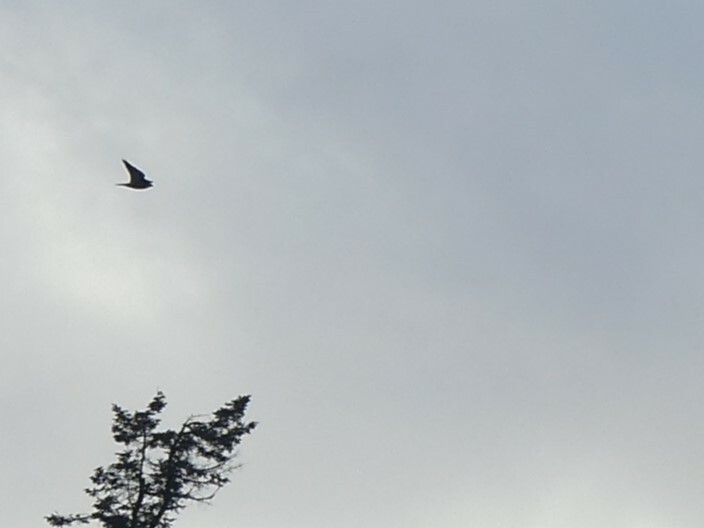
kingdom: Animalia
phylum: Chordata
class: Aves
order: Falconiformes
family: Falconidae
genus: Falco
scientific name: Falco peregrinus
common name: Peregrine falcon
